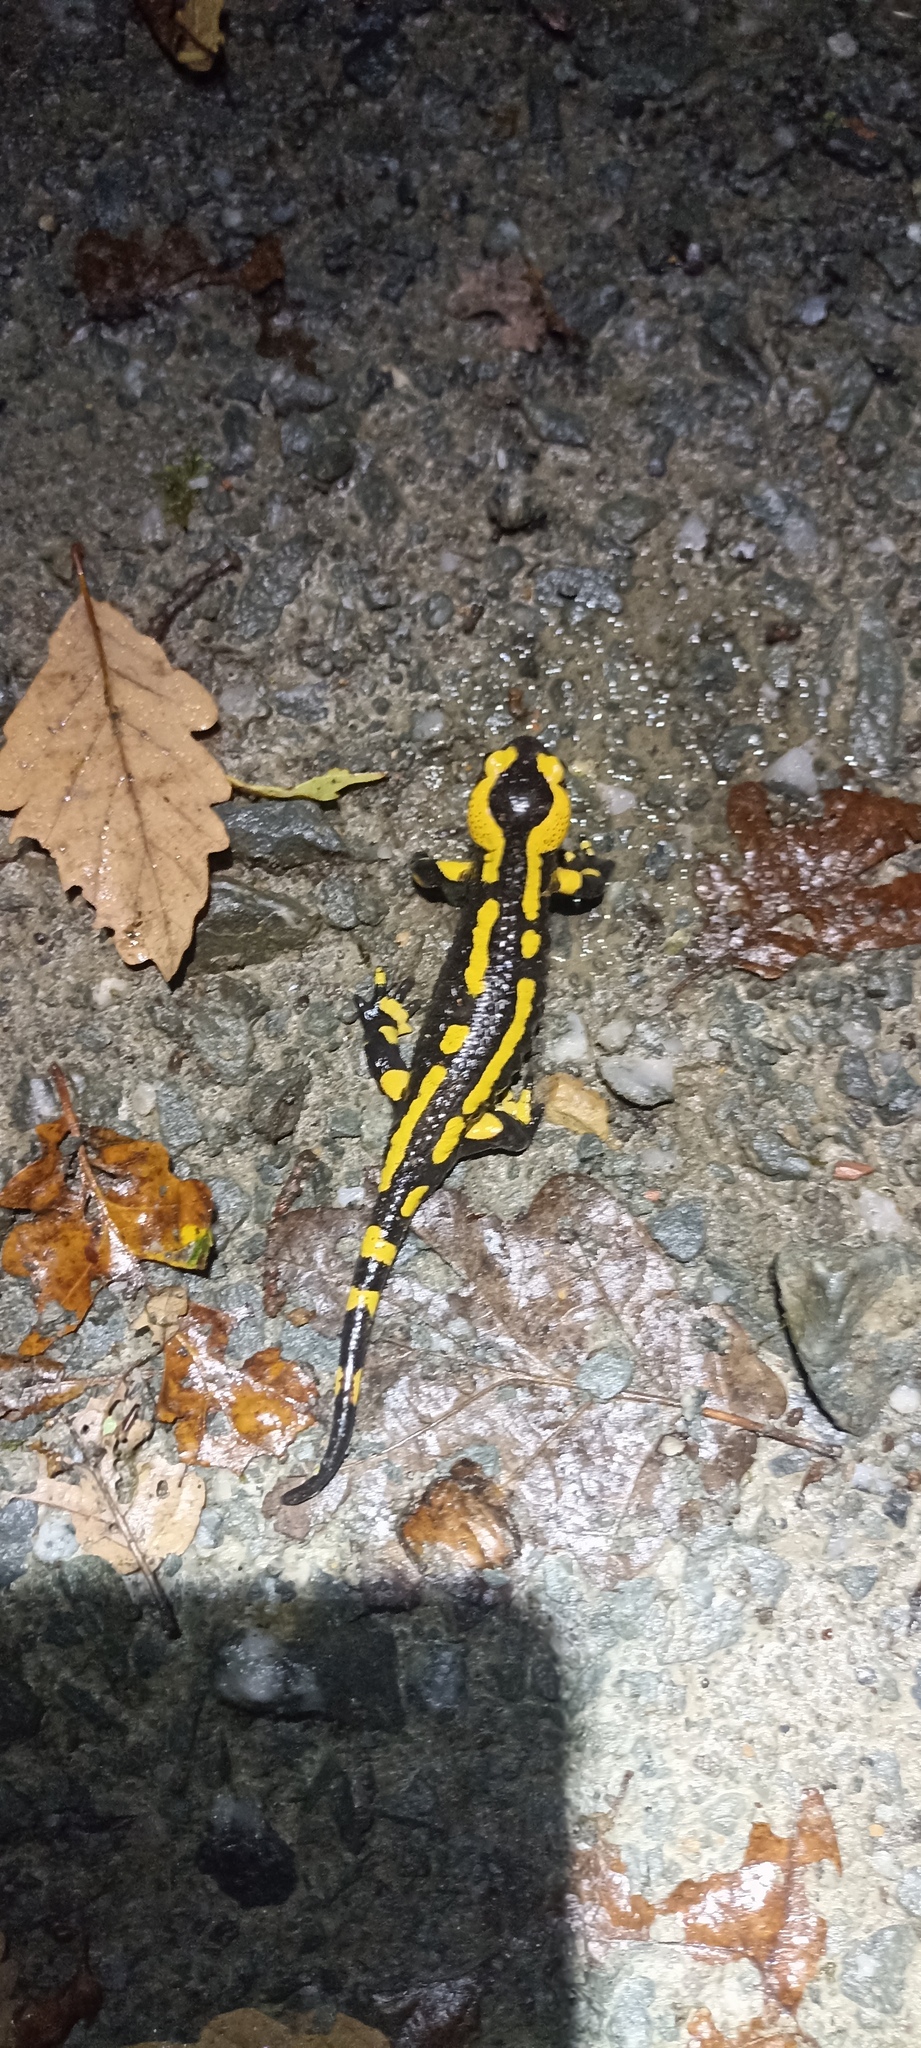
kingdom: Animalia
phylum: Chordata
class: Amphibia
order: Caudata
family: Salamandridae
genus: Salamandra
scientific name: Salamandra salamandra
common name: Fire salamander
